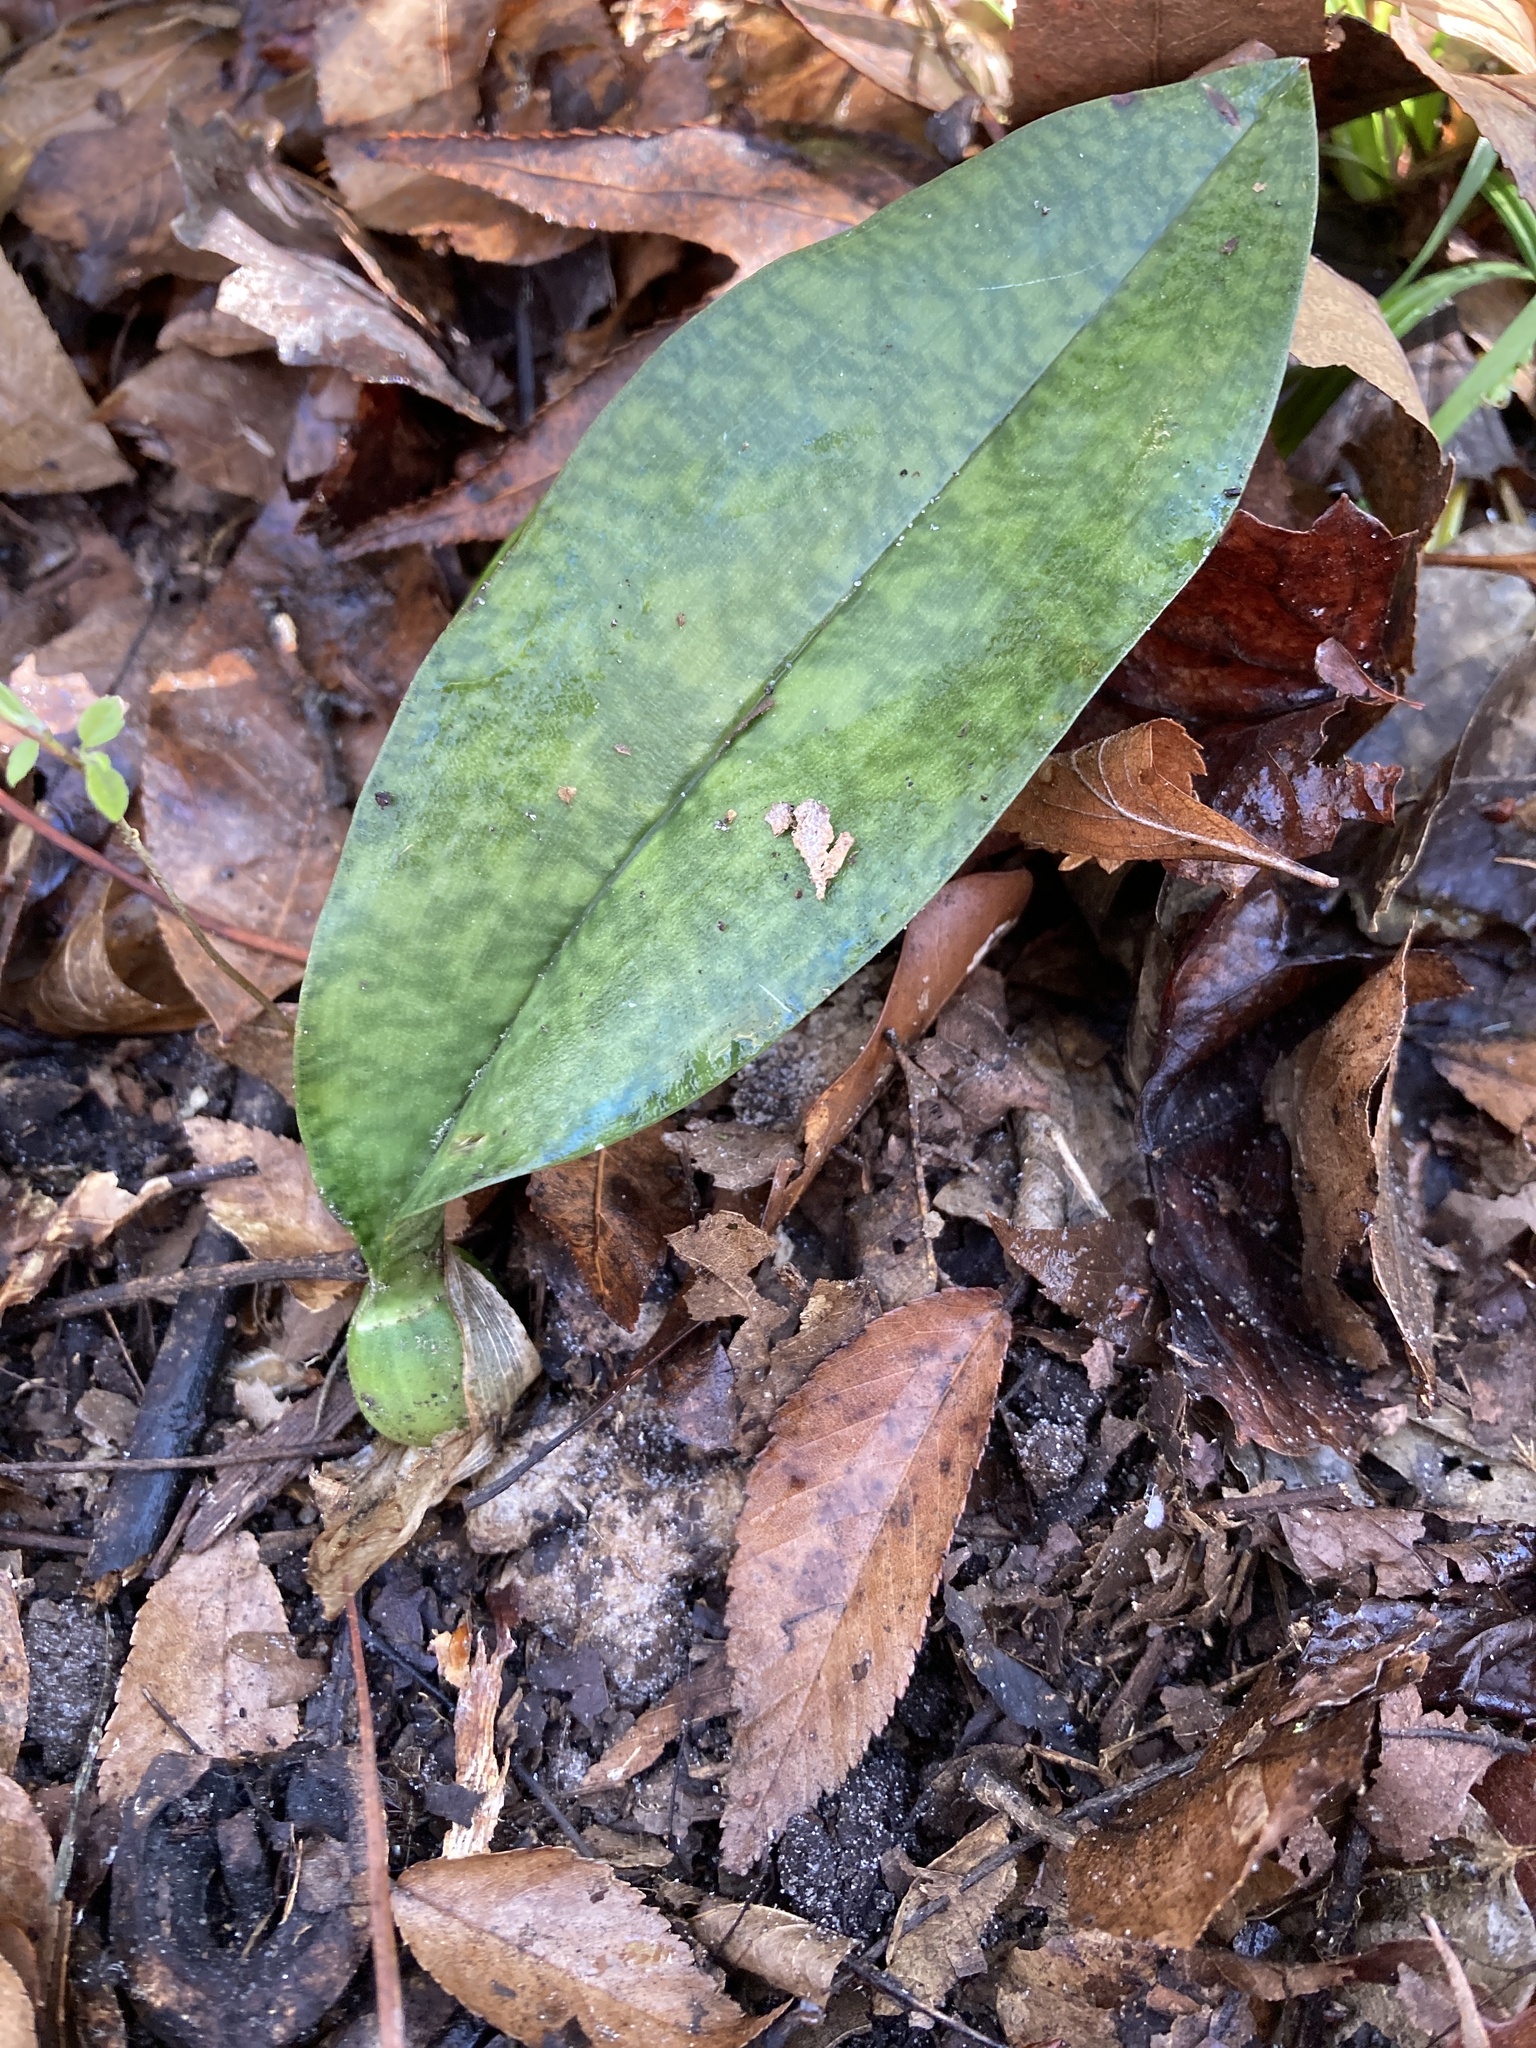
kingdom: Plantae
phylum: Tracheophyta
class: Liliopsida
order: Asparagales
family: Orchidaceae
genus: Eulophia
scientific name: Eulophia maculata
